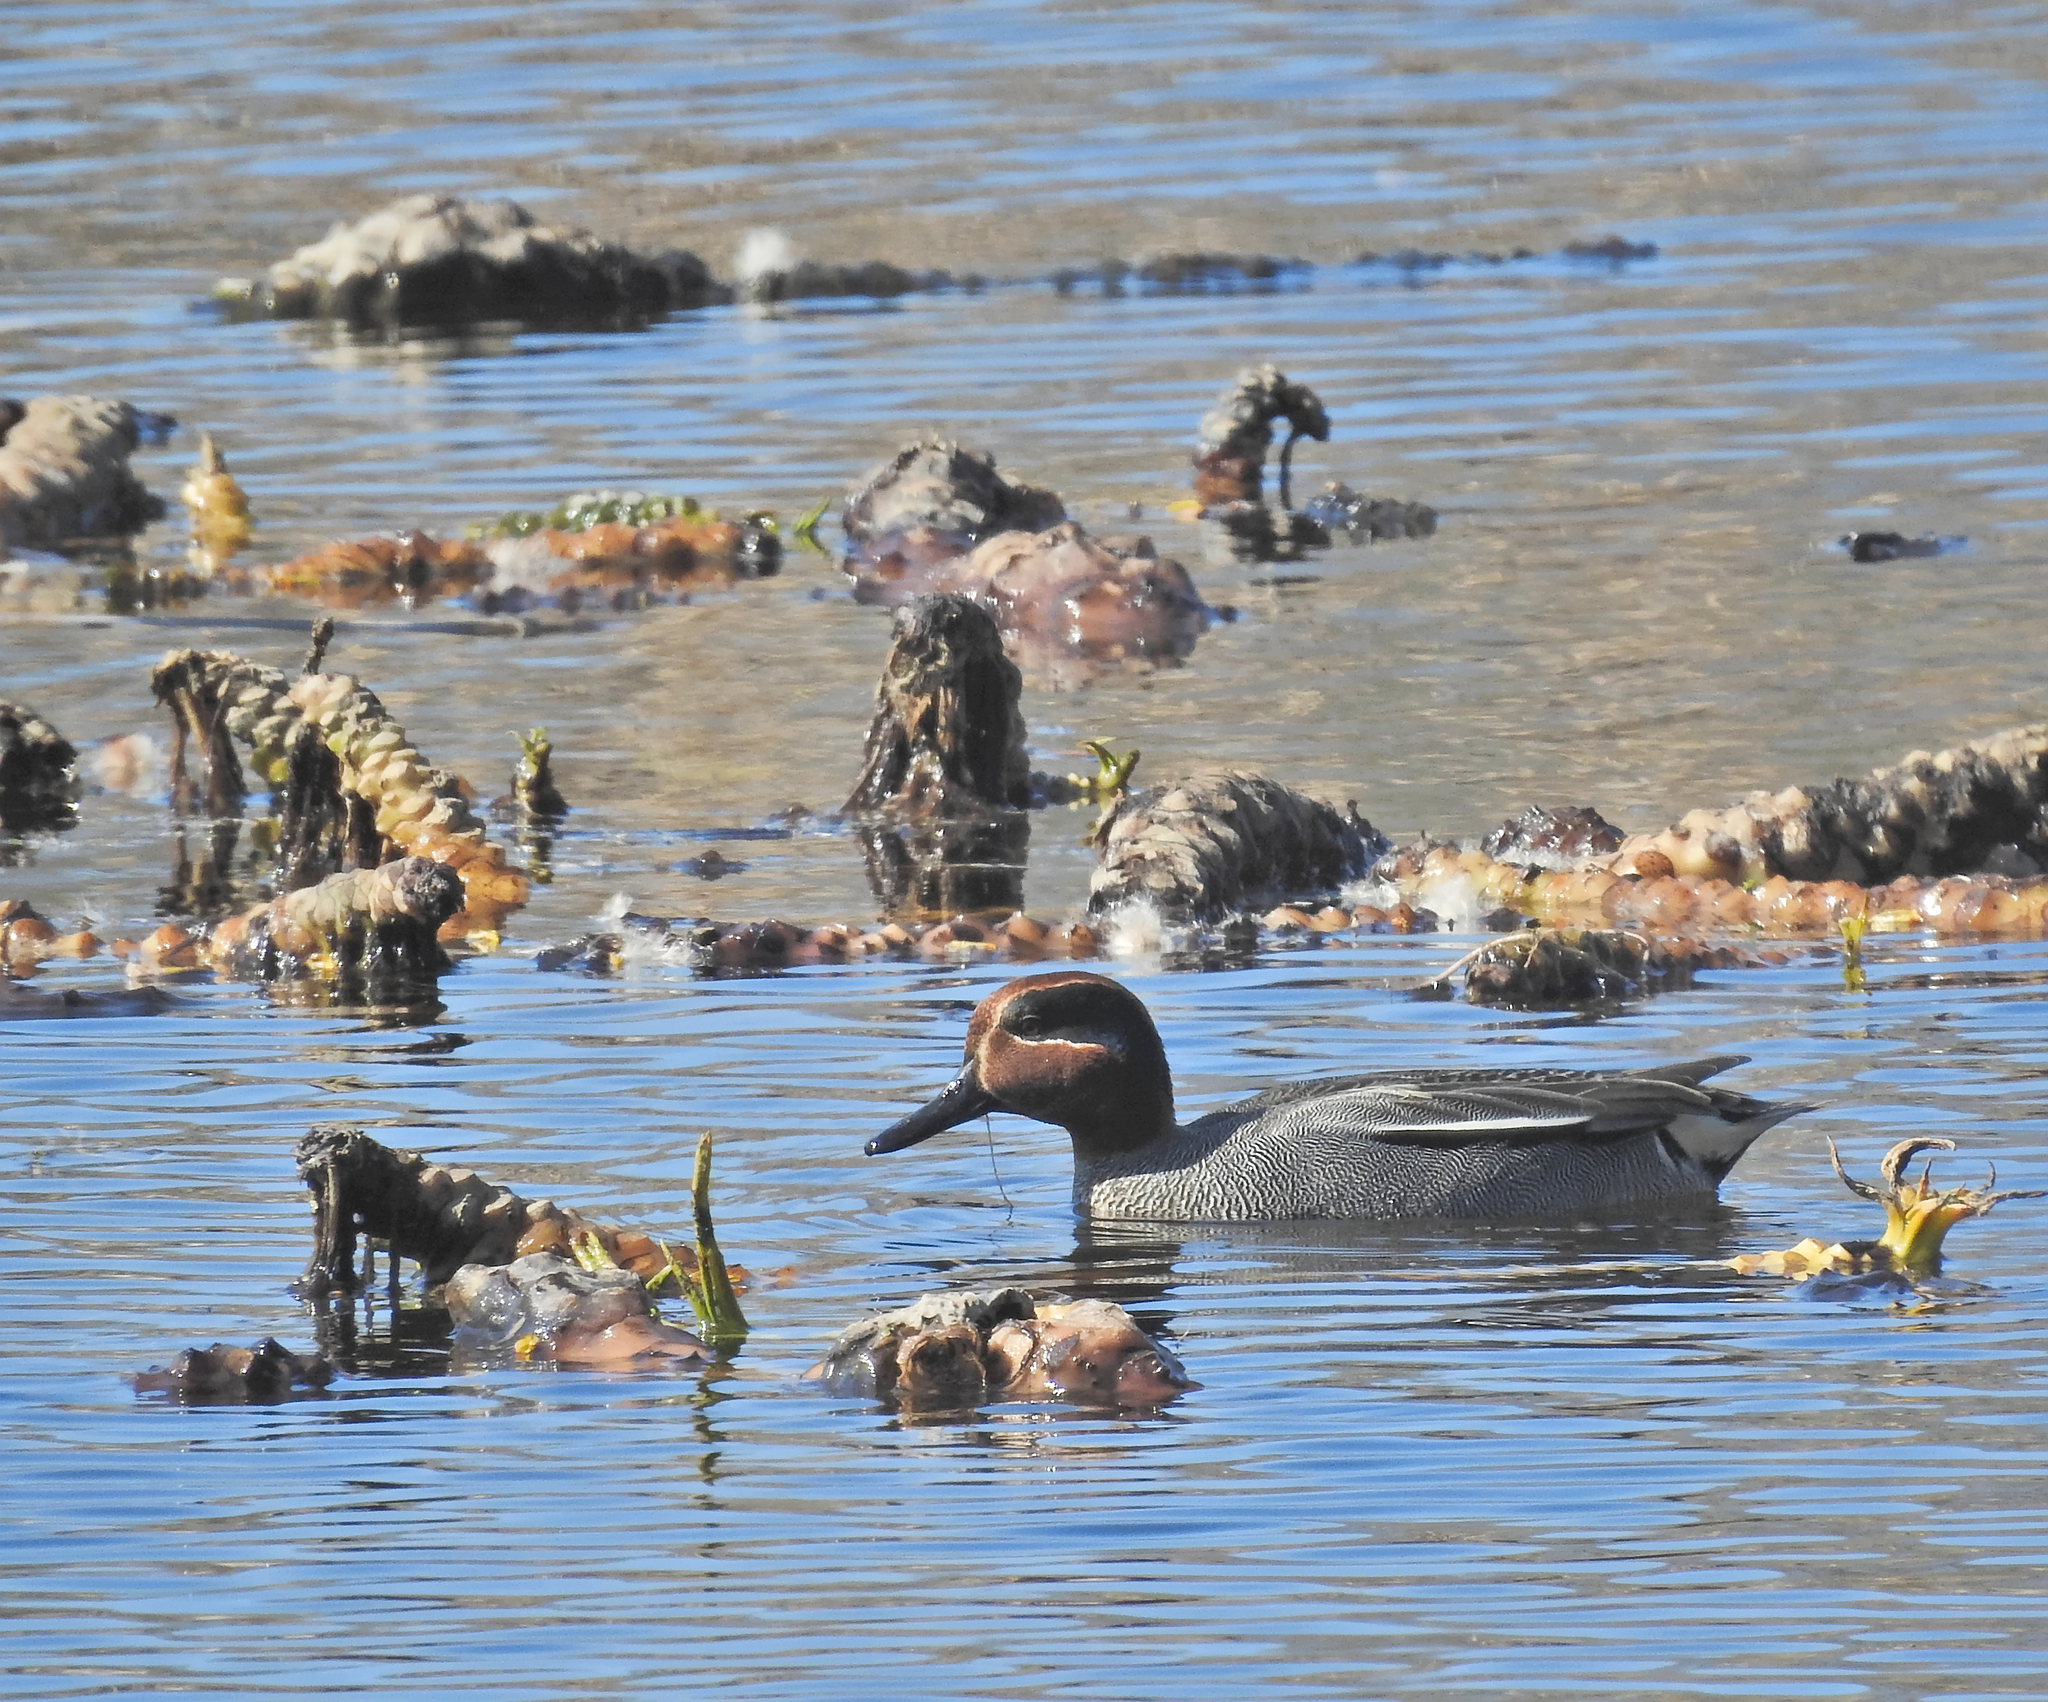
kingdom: Animalia
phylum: Chordata
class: Aves
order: Anseriformes
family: Anatidae
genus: Anas
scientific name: Anas crecca
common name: Eurasian teal
